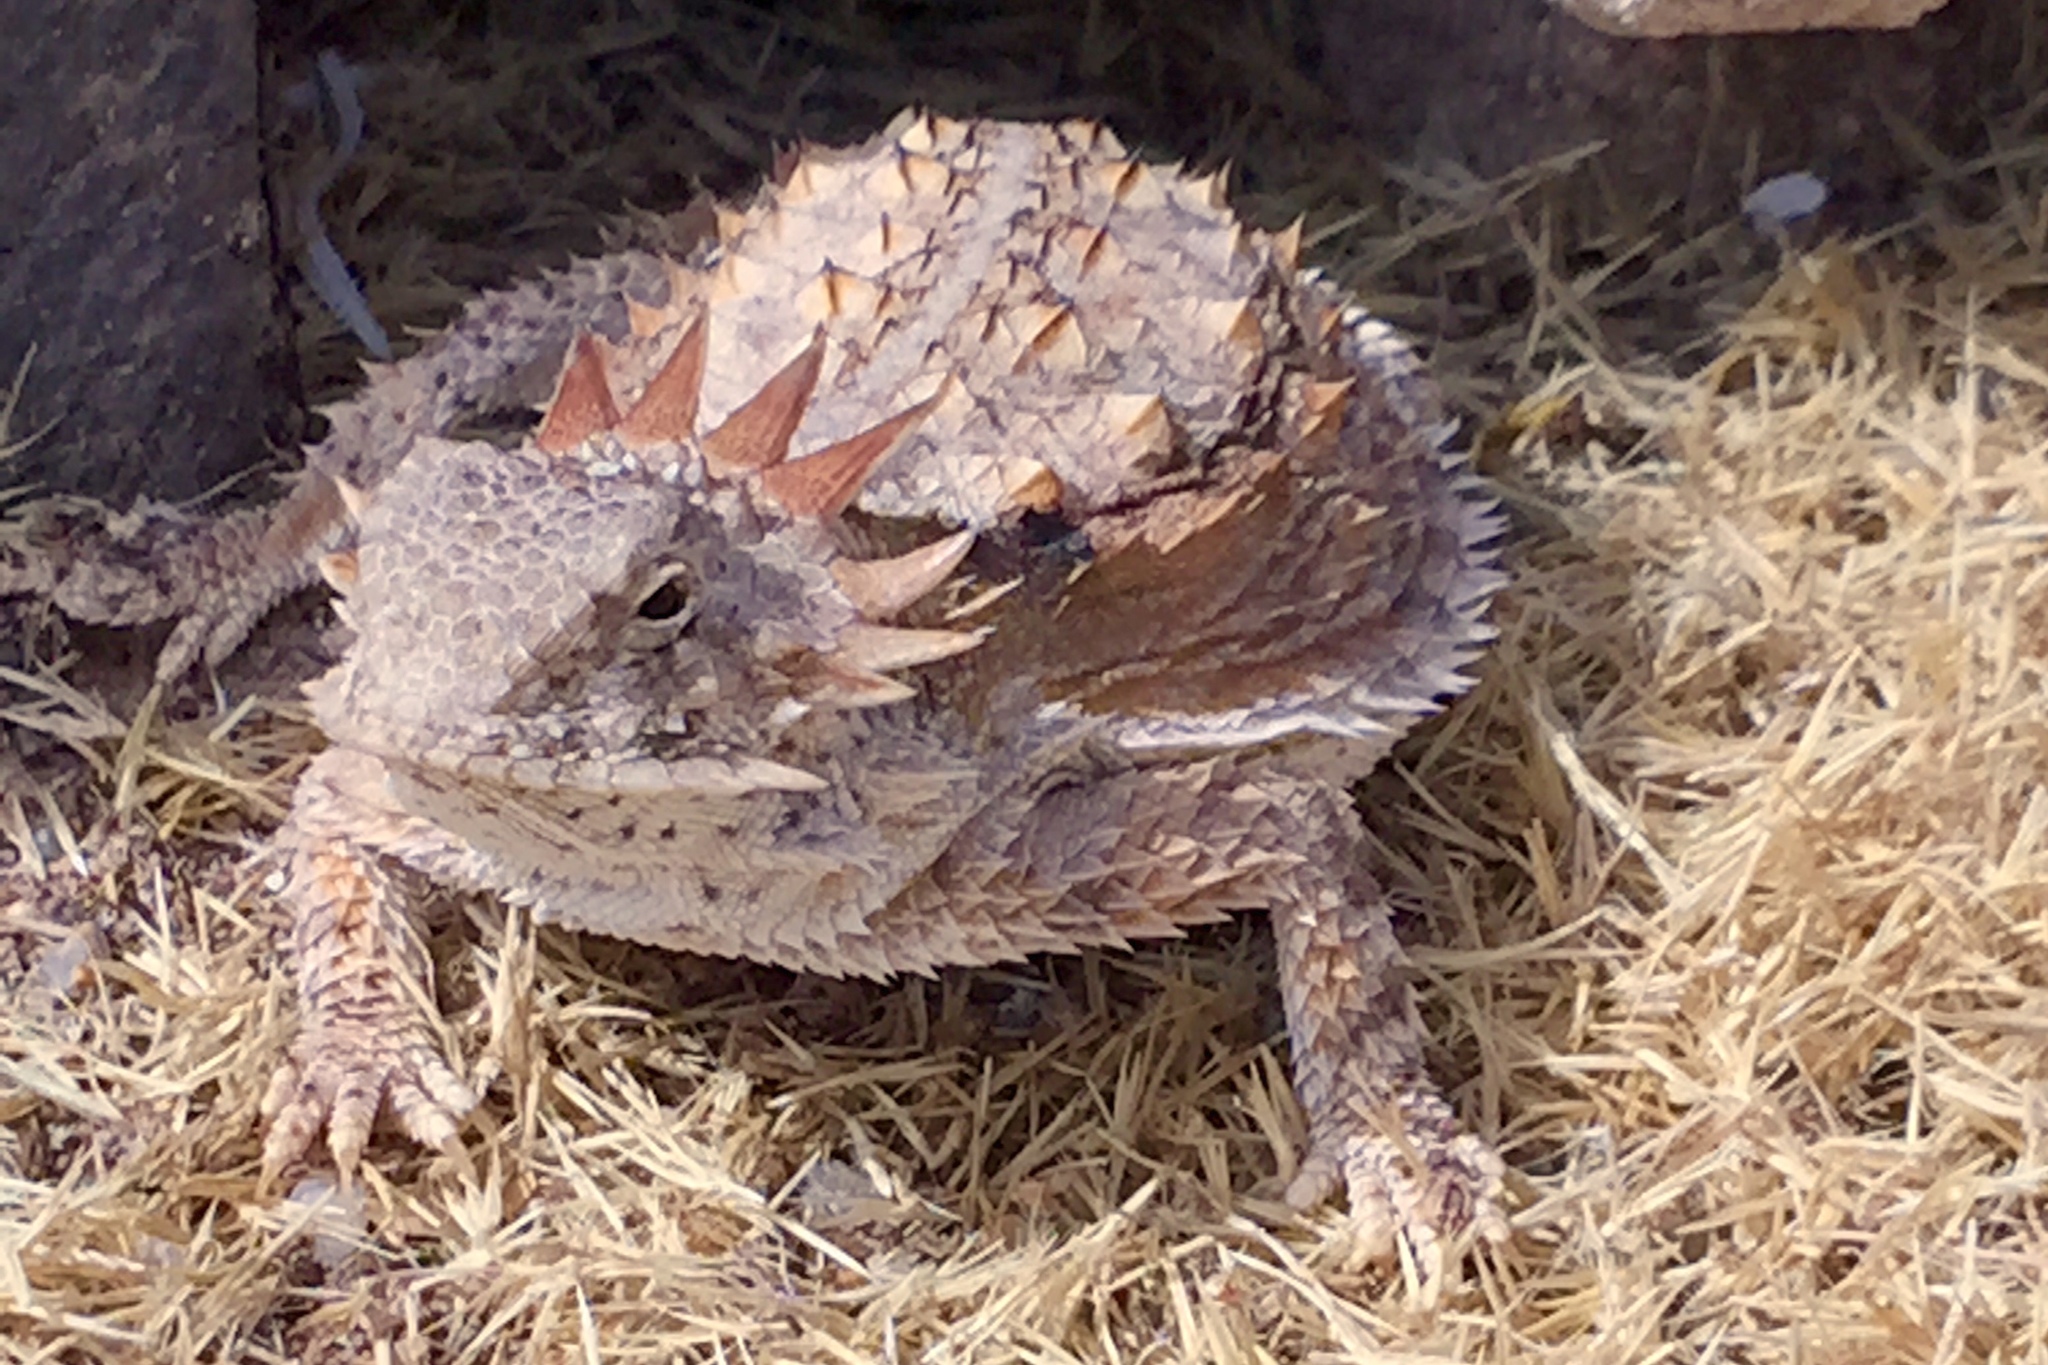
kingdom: Animalia
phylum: Chordata
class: Squamata
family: Phrynosomatidae
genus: Phrynosoma
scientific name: Phrynosoma solare
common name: Regal horned lizard
